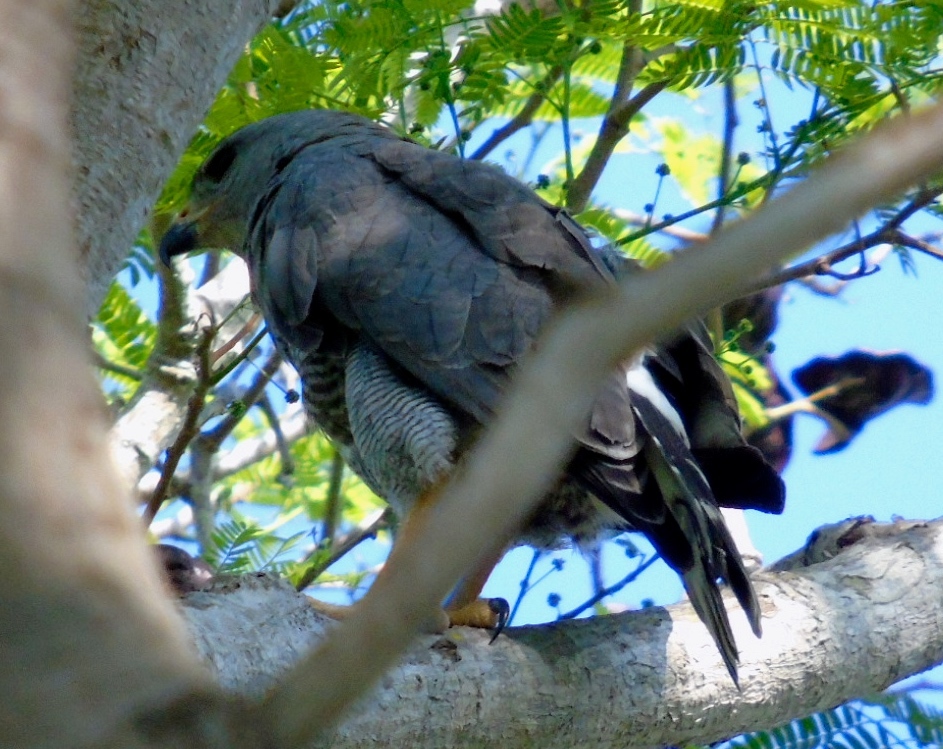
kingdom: Animalia
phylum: Chordata
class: Aves
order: Accipitriformes
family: Accipitridae
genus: Buteo
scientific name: Buteo nitidus
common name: Grey-lined hawk
